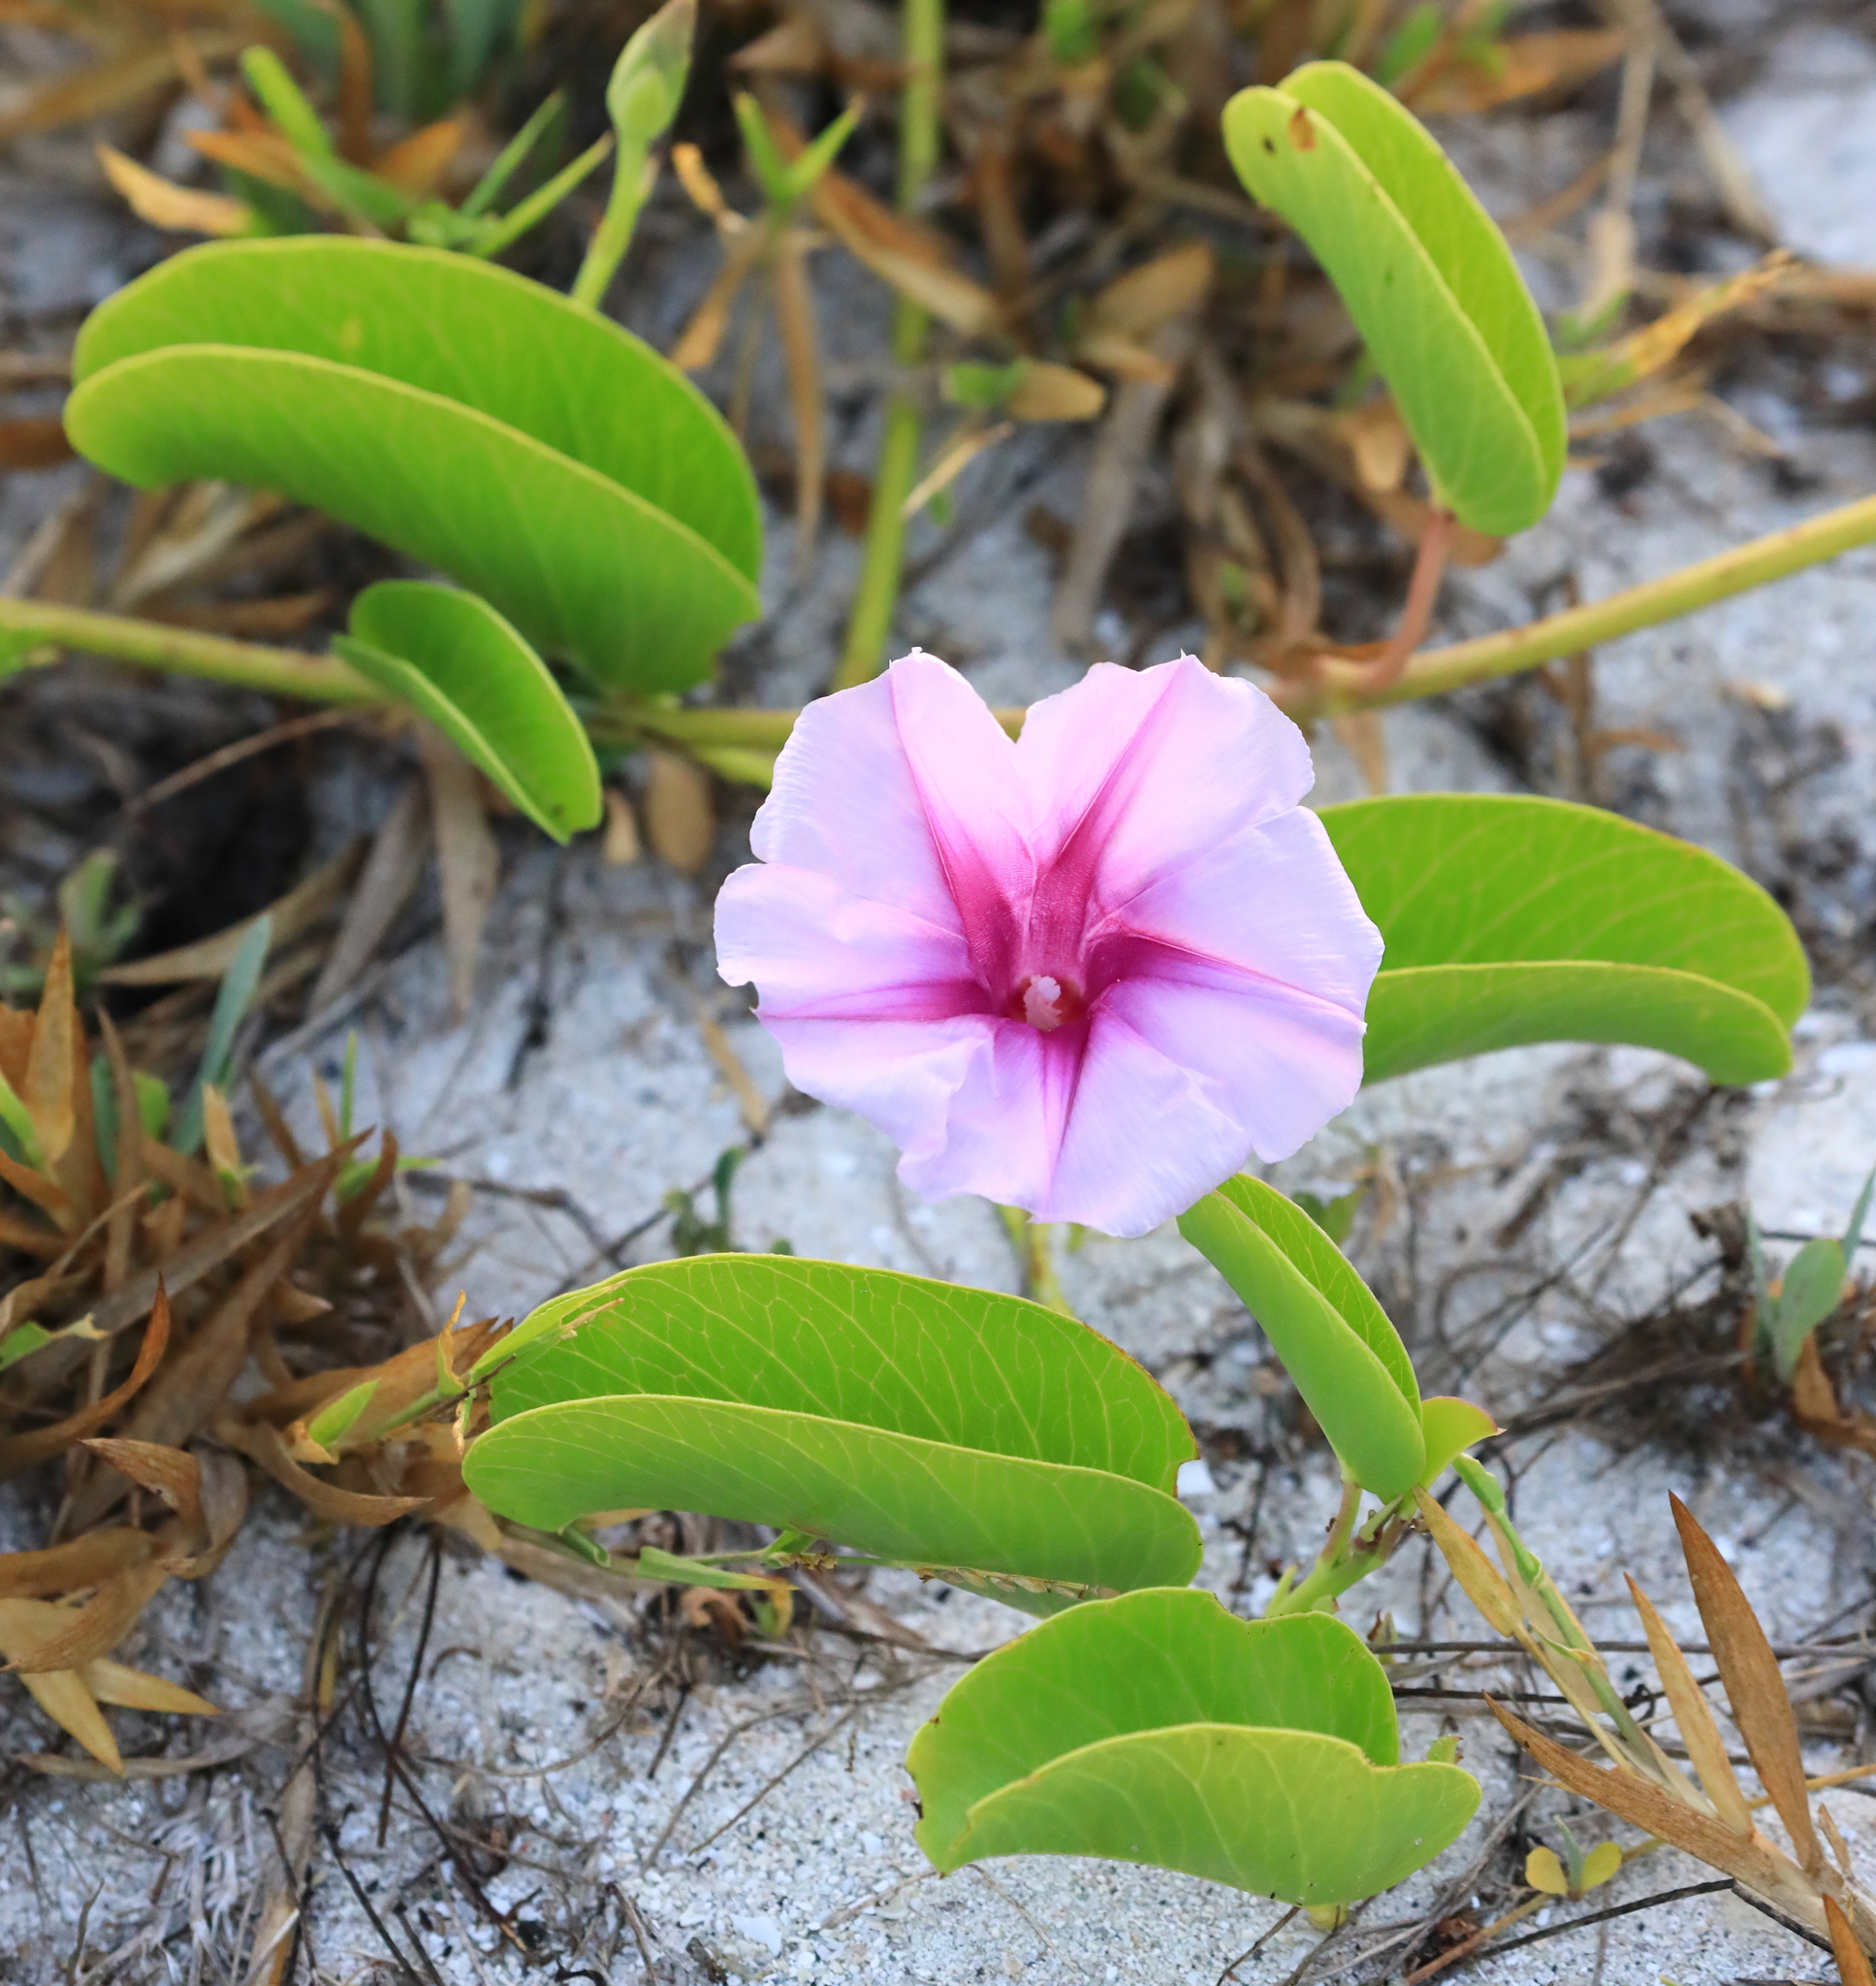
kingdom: Plantae
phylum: Tracheophyta
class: Magnoliopsida
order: Solanales
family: Convolvulaceae
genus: Ipomoea
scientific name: Ipomoea pes-caprae
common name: Beach morning glory
